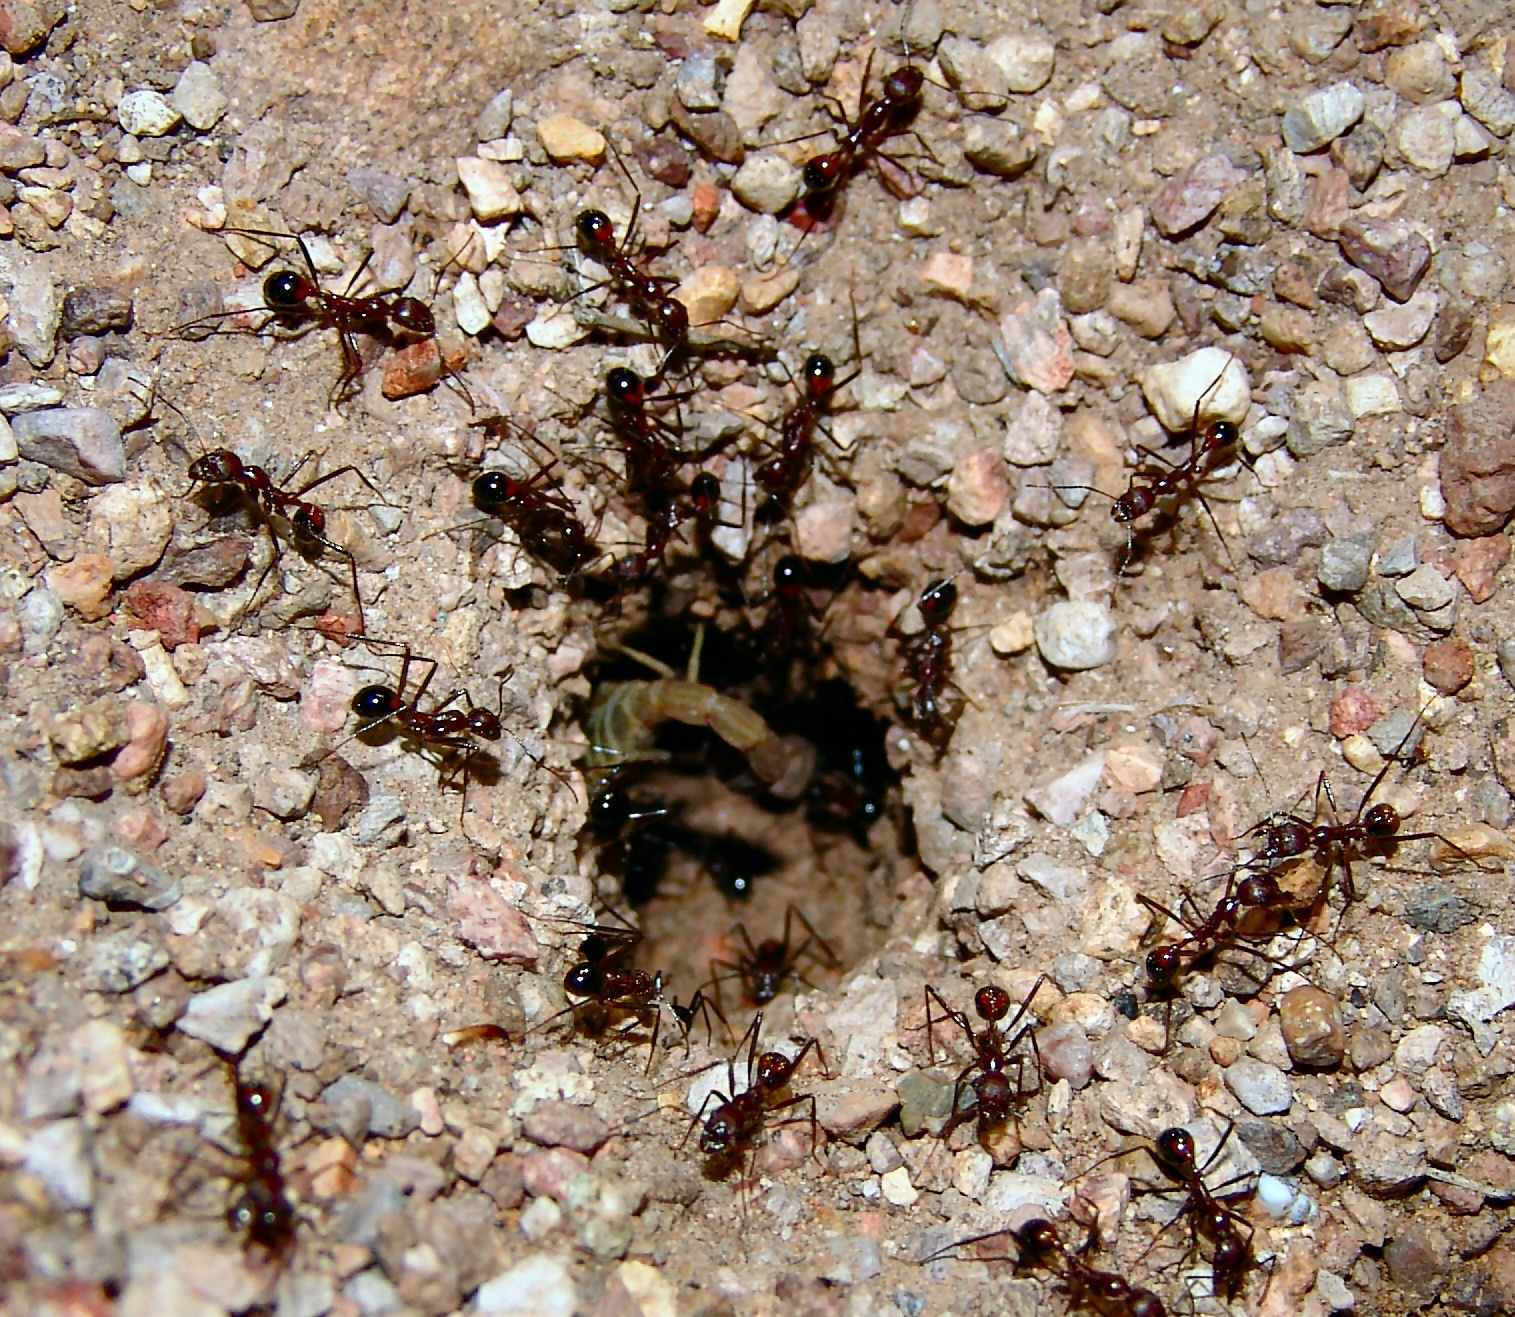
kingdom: Animalia
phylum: Arthropoda
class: Arachnida
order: Scorpiones
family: Vaejovidae
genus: Chihuahuanus
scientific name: Chihuahuanus crassimanus
